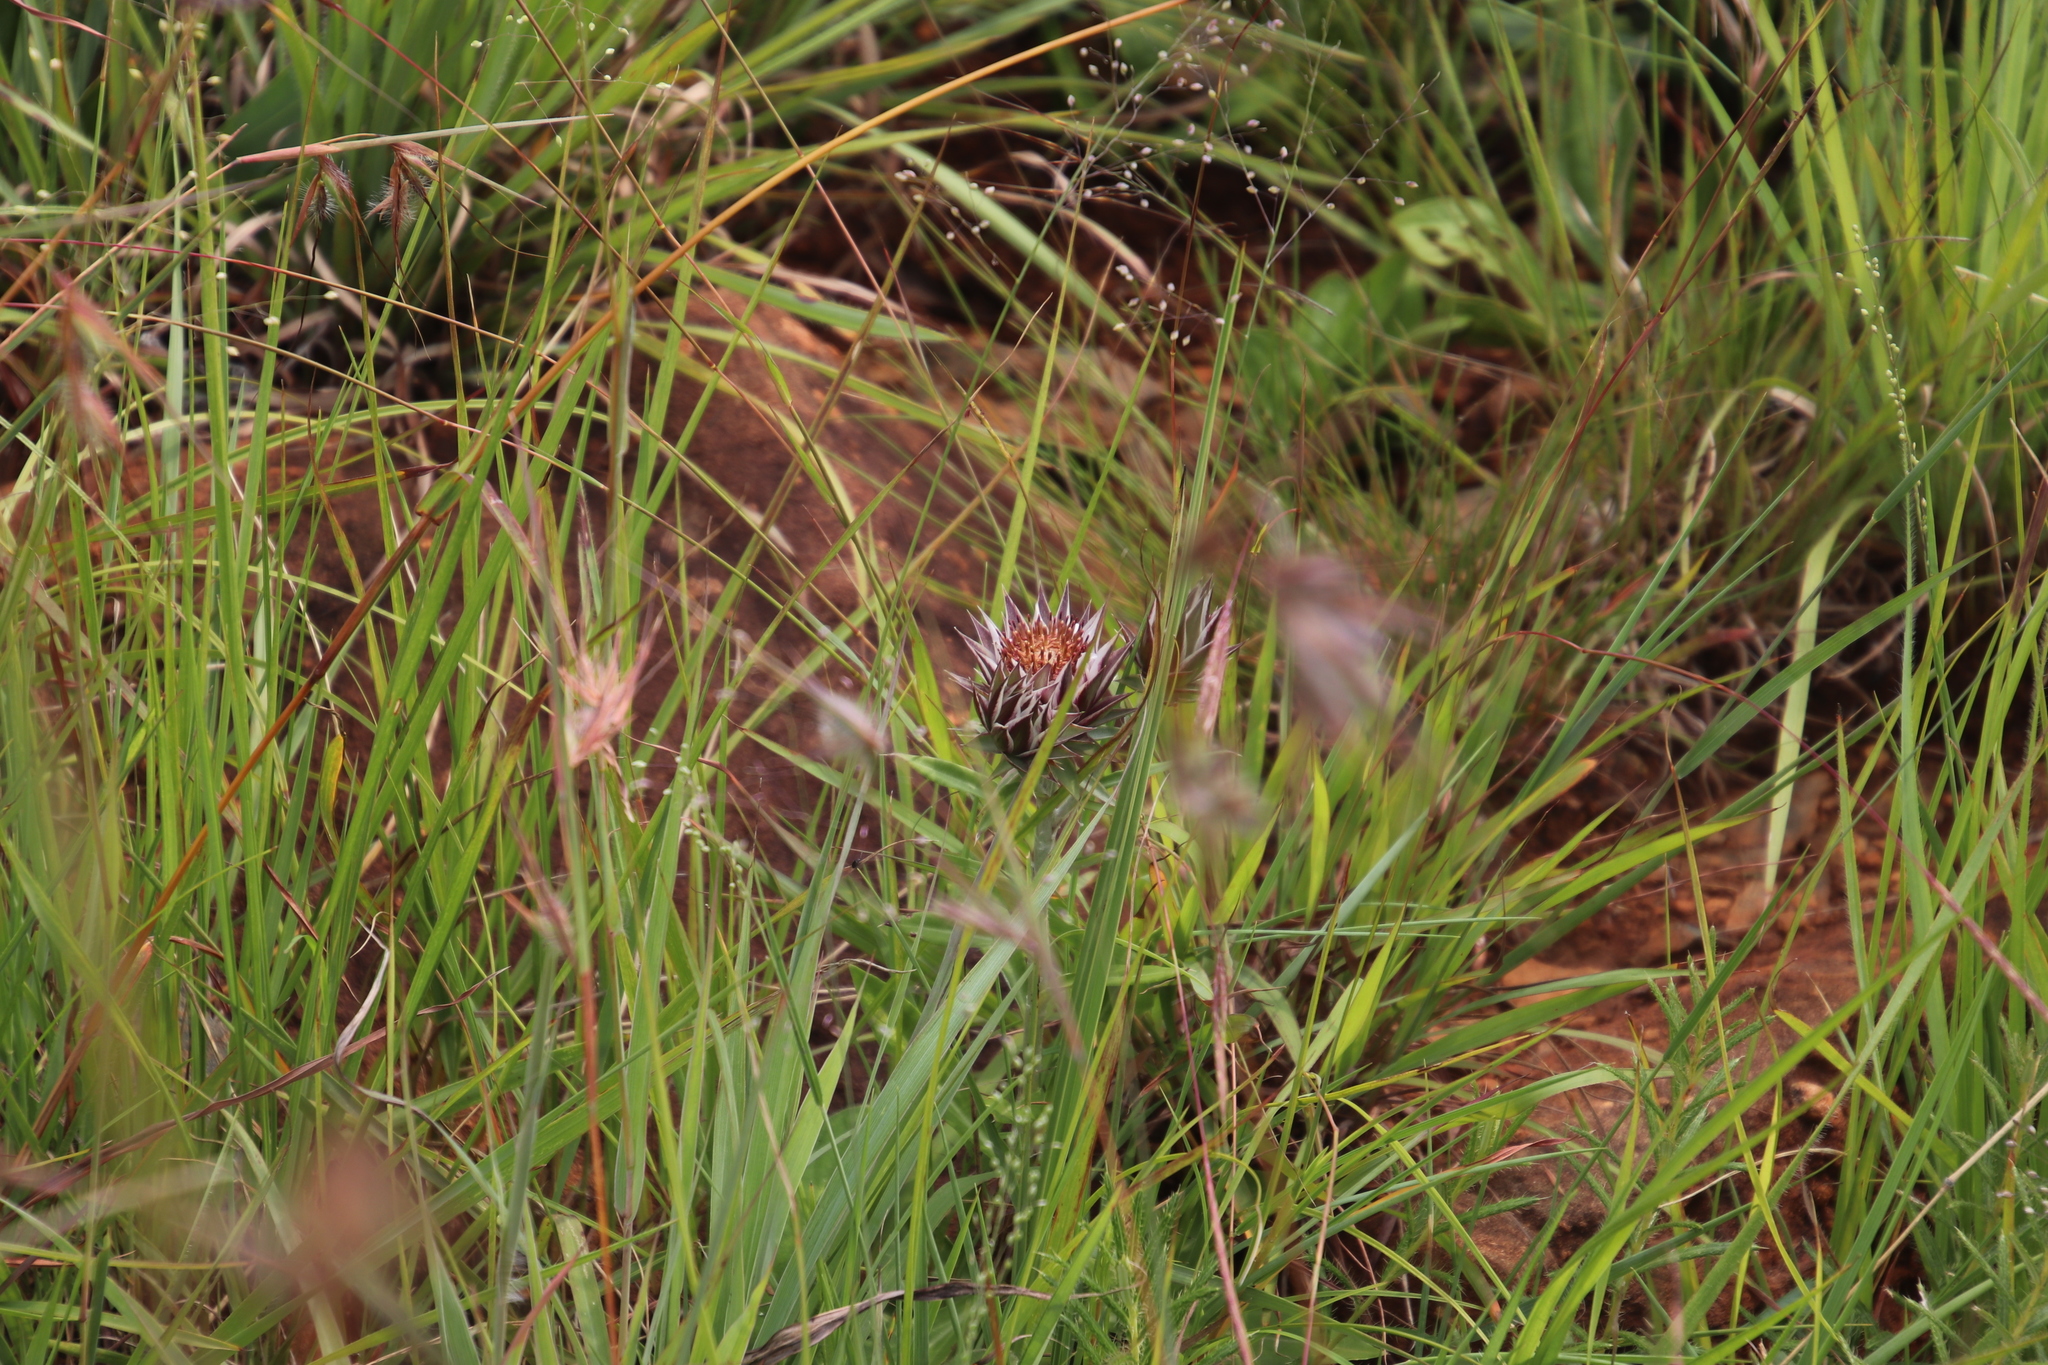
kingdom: Plantae
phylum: Tracheophyta
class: Magnoliopsida
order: Asterales
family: Asteraceae
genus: Macledium
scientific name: Macledium zeyheri
